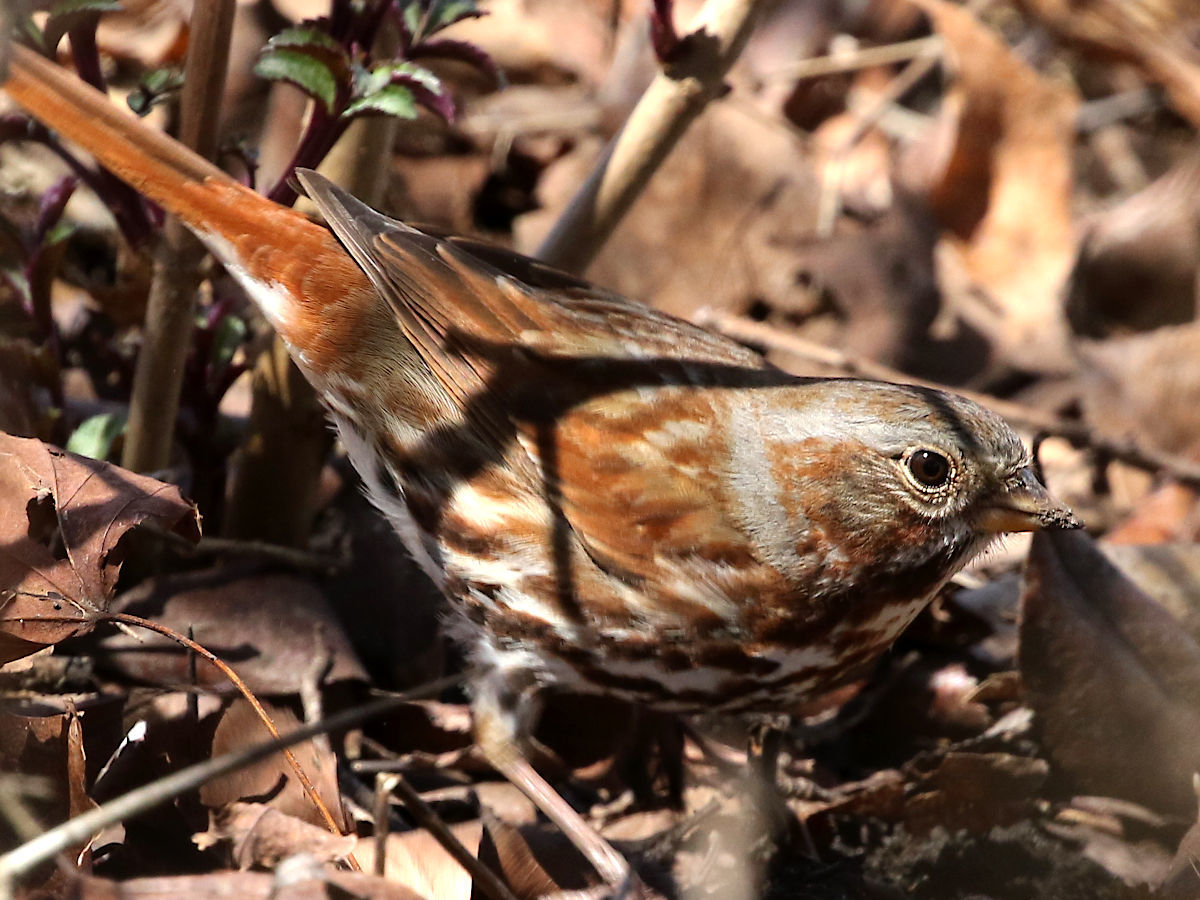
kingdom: Animalia
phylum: Chordata
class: Aves
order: Passeriformes
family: Passerellidae
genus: Passerella
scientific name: Passerella iliaca
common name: Fox sparrow
